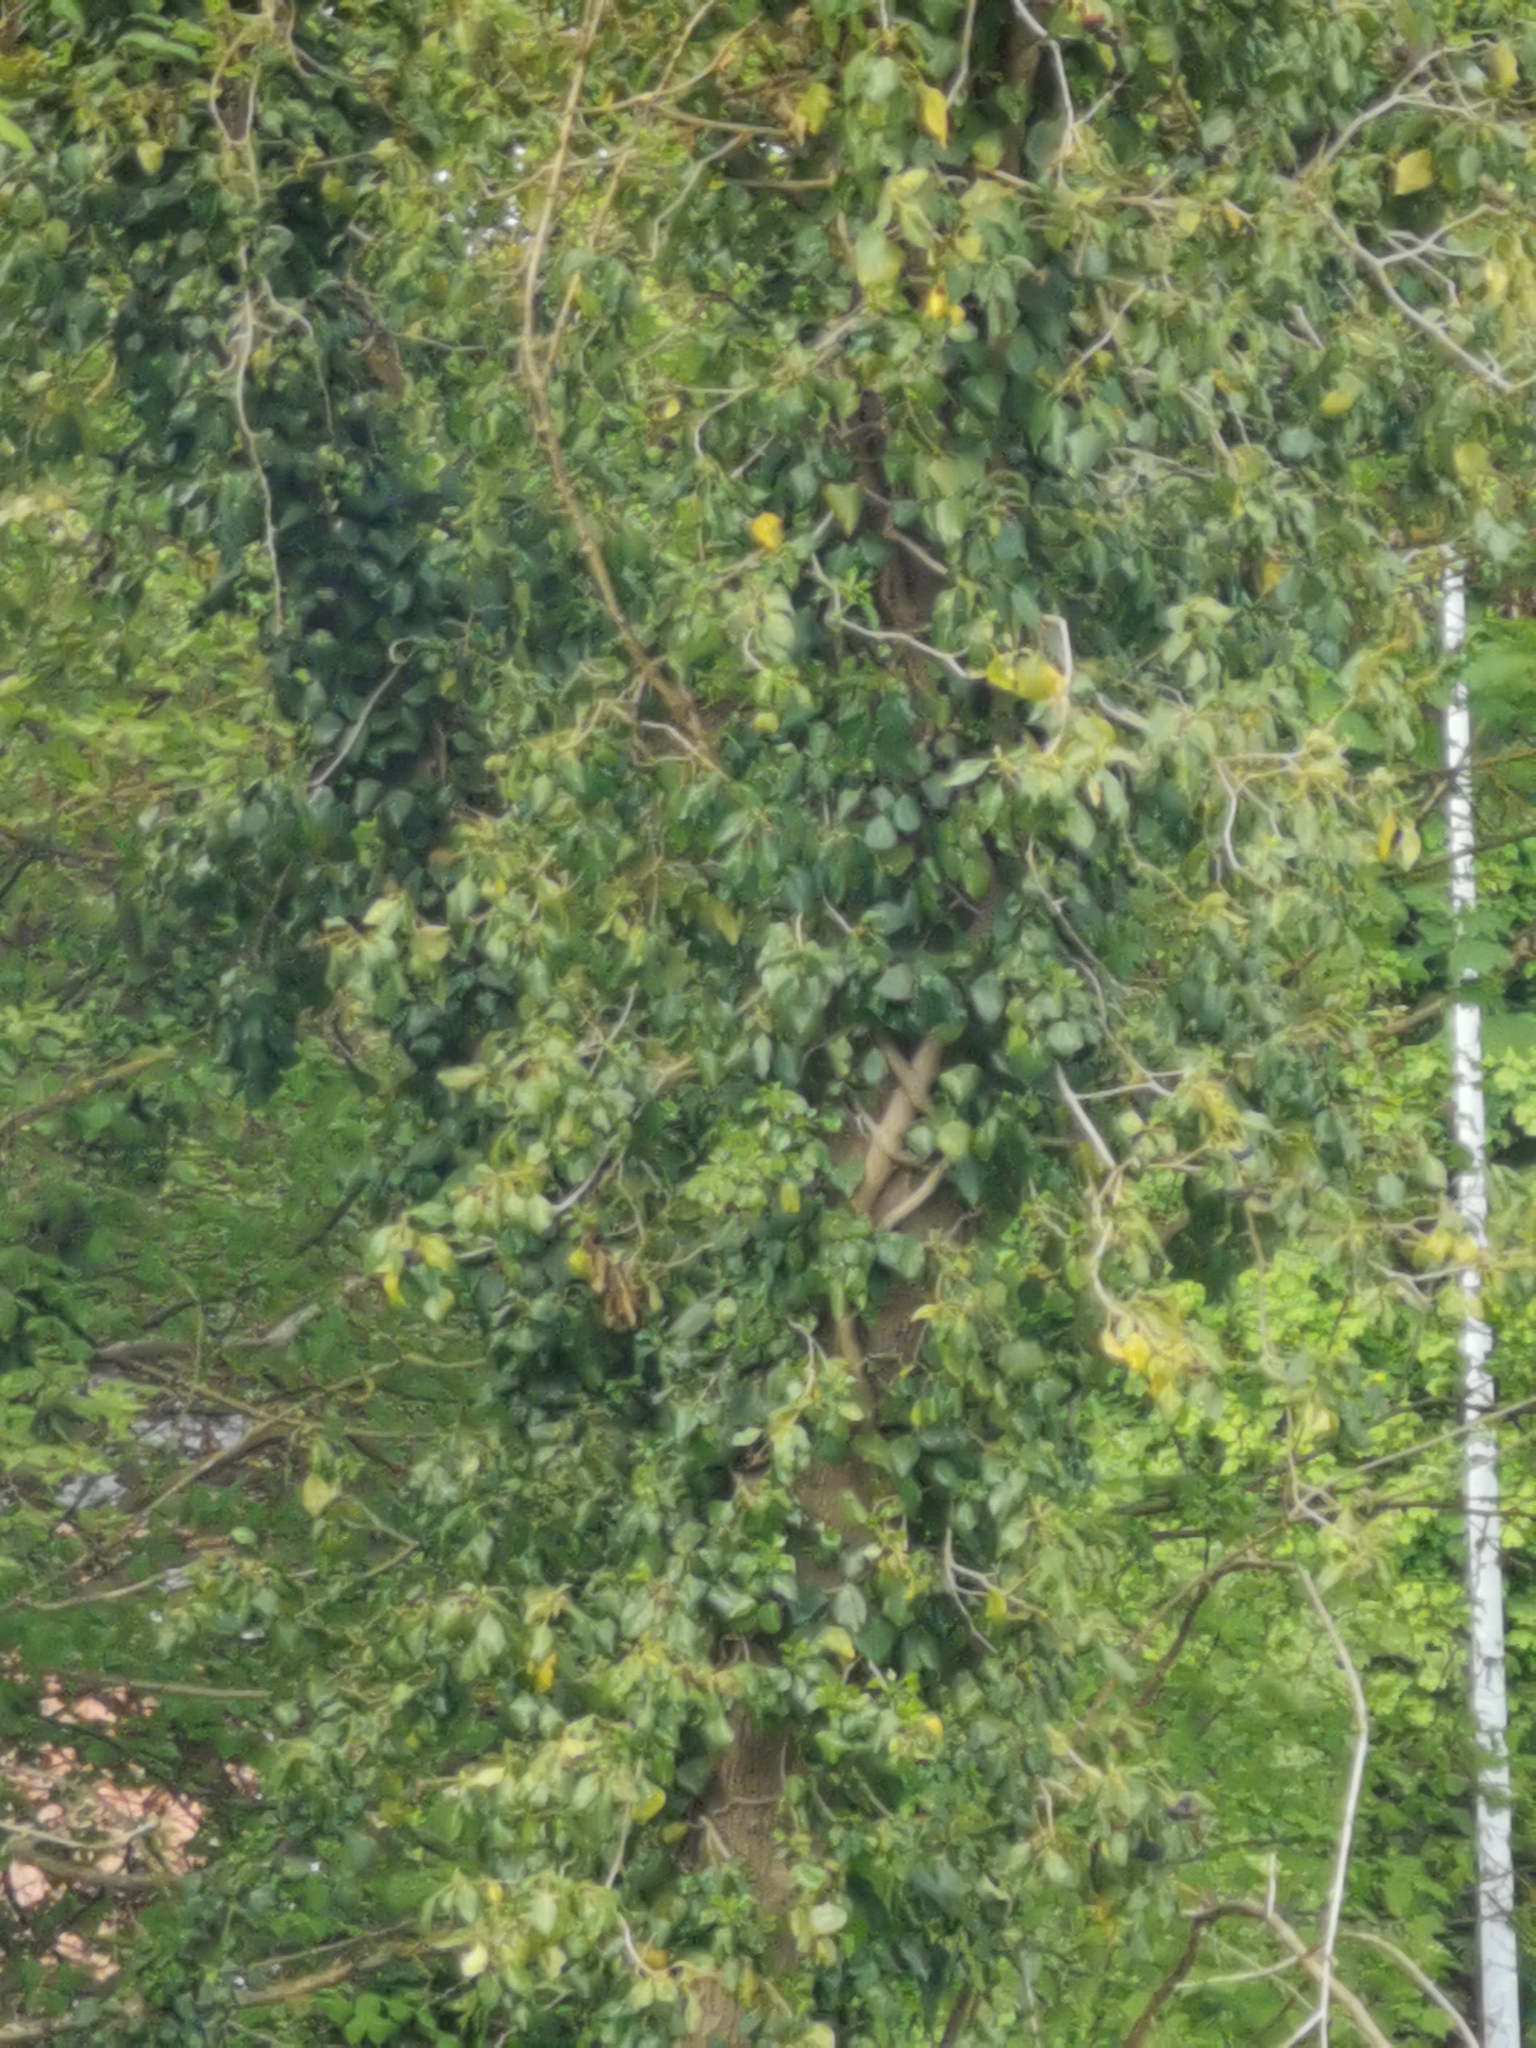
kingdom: Plantae
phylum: Tracheophyta
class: Magnoliopsida
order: Apiales
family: Araliaceae
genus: Hedera
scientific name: Hedera helix
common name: Ivy
